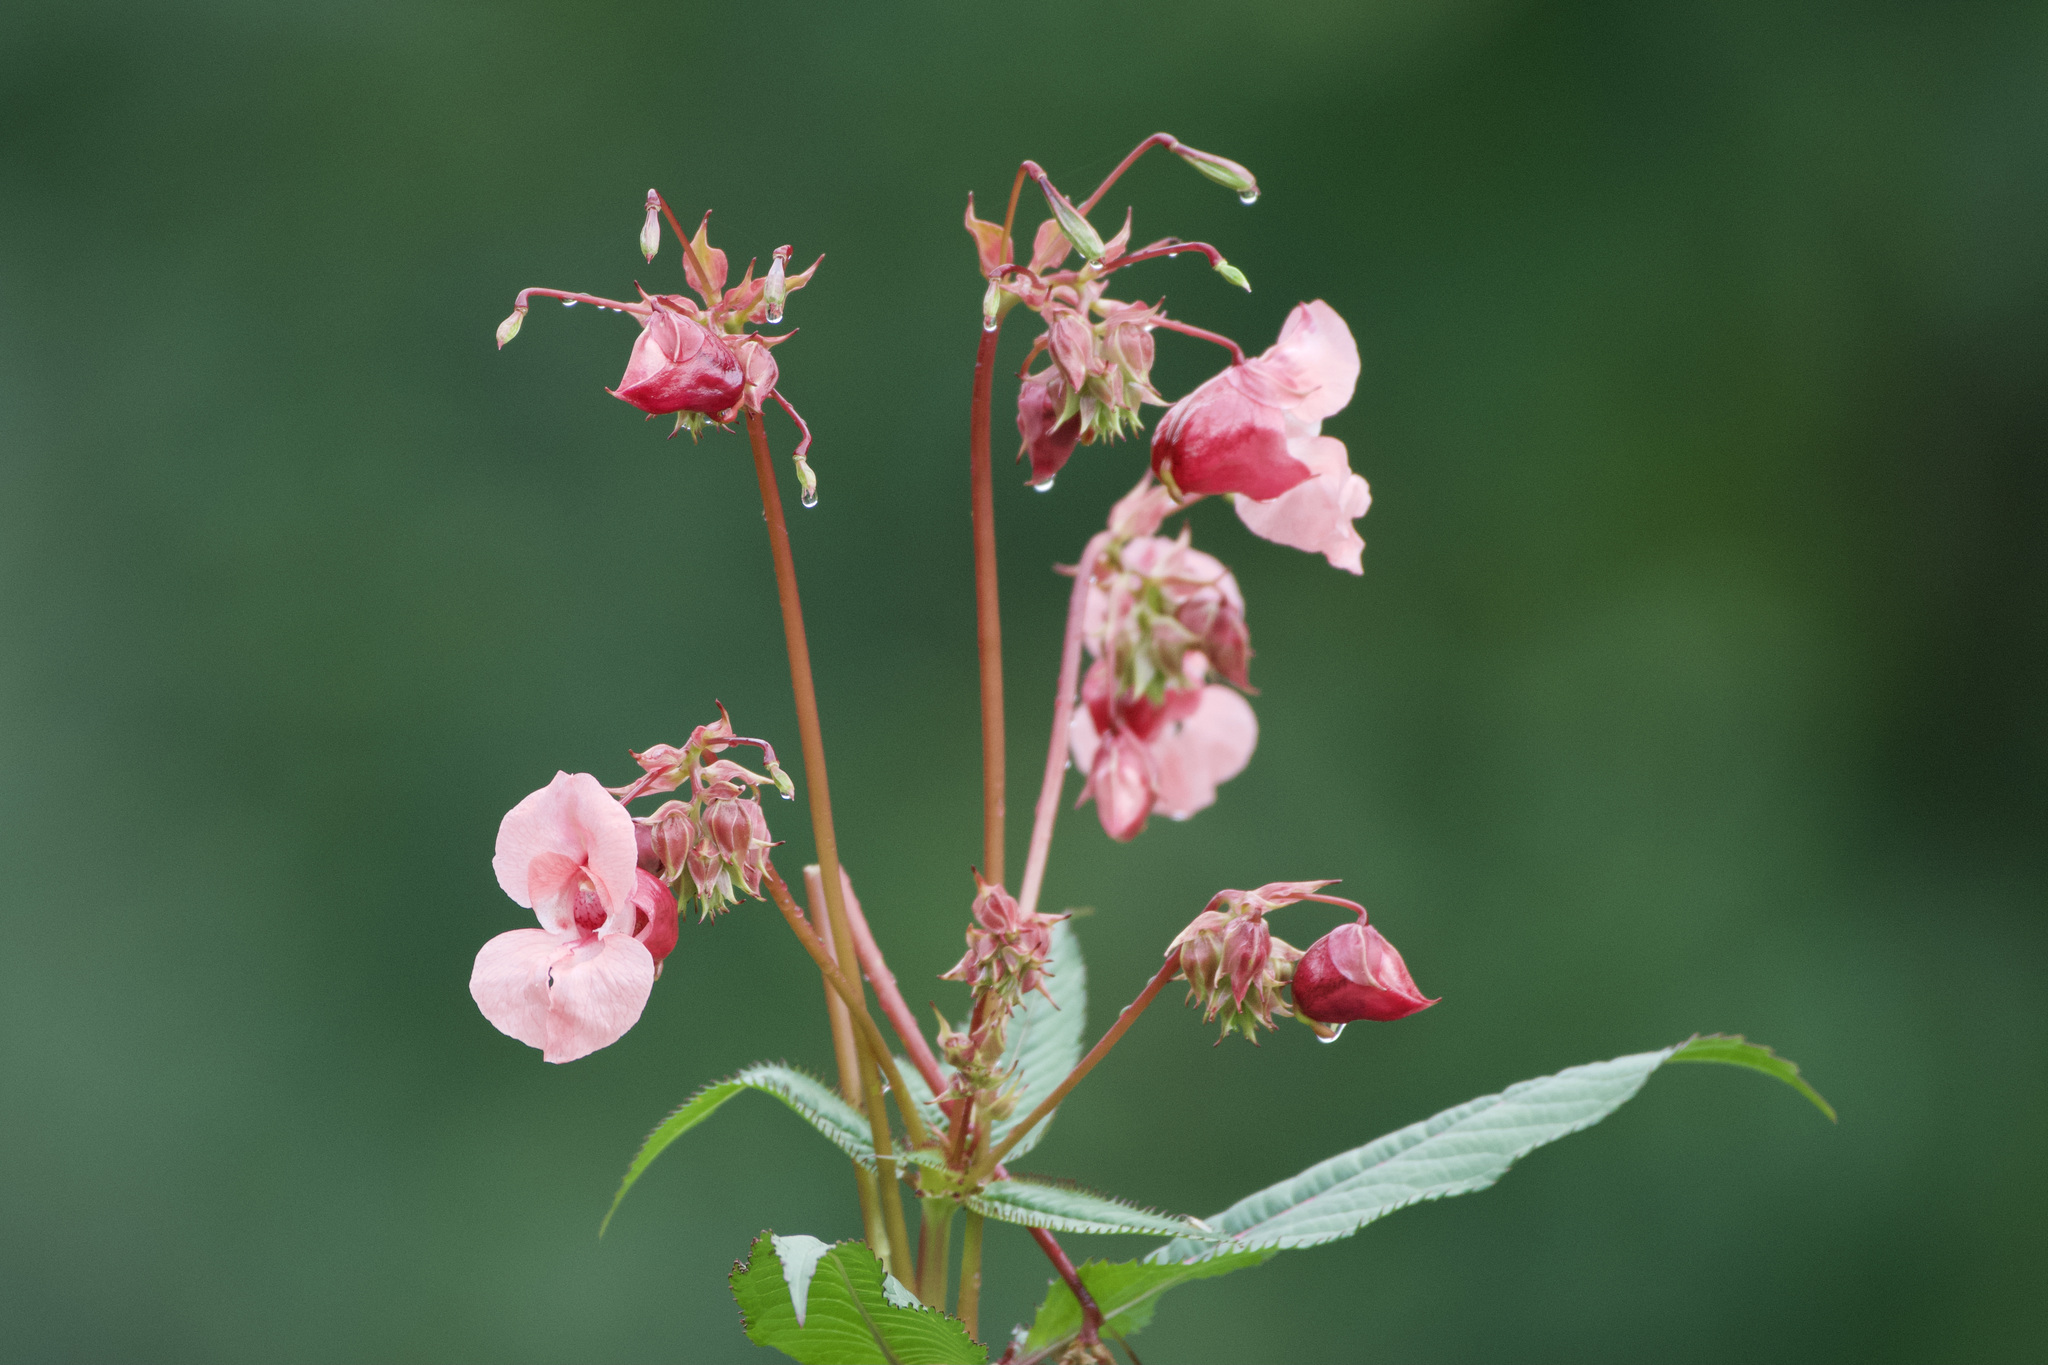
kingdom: Plantae
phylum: Tracheophyta
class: Magnoliopsida
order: Ericales
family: Balsaminaceae
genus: Impatiens
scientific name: Impatiens glandulifera
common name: Himalayan balsam
